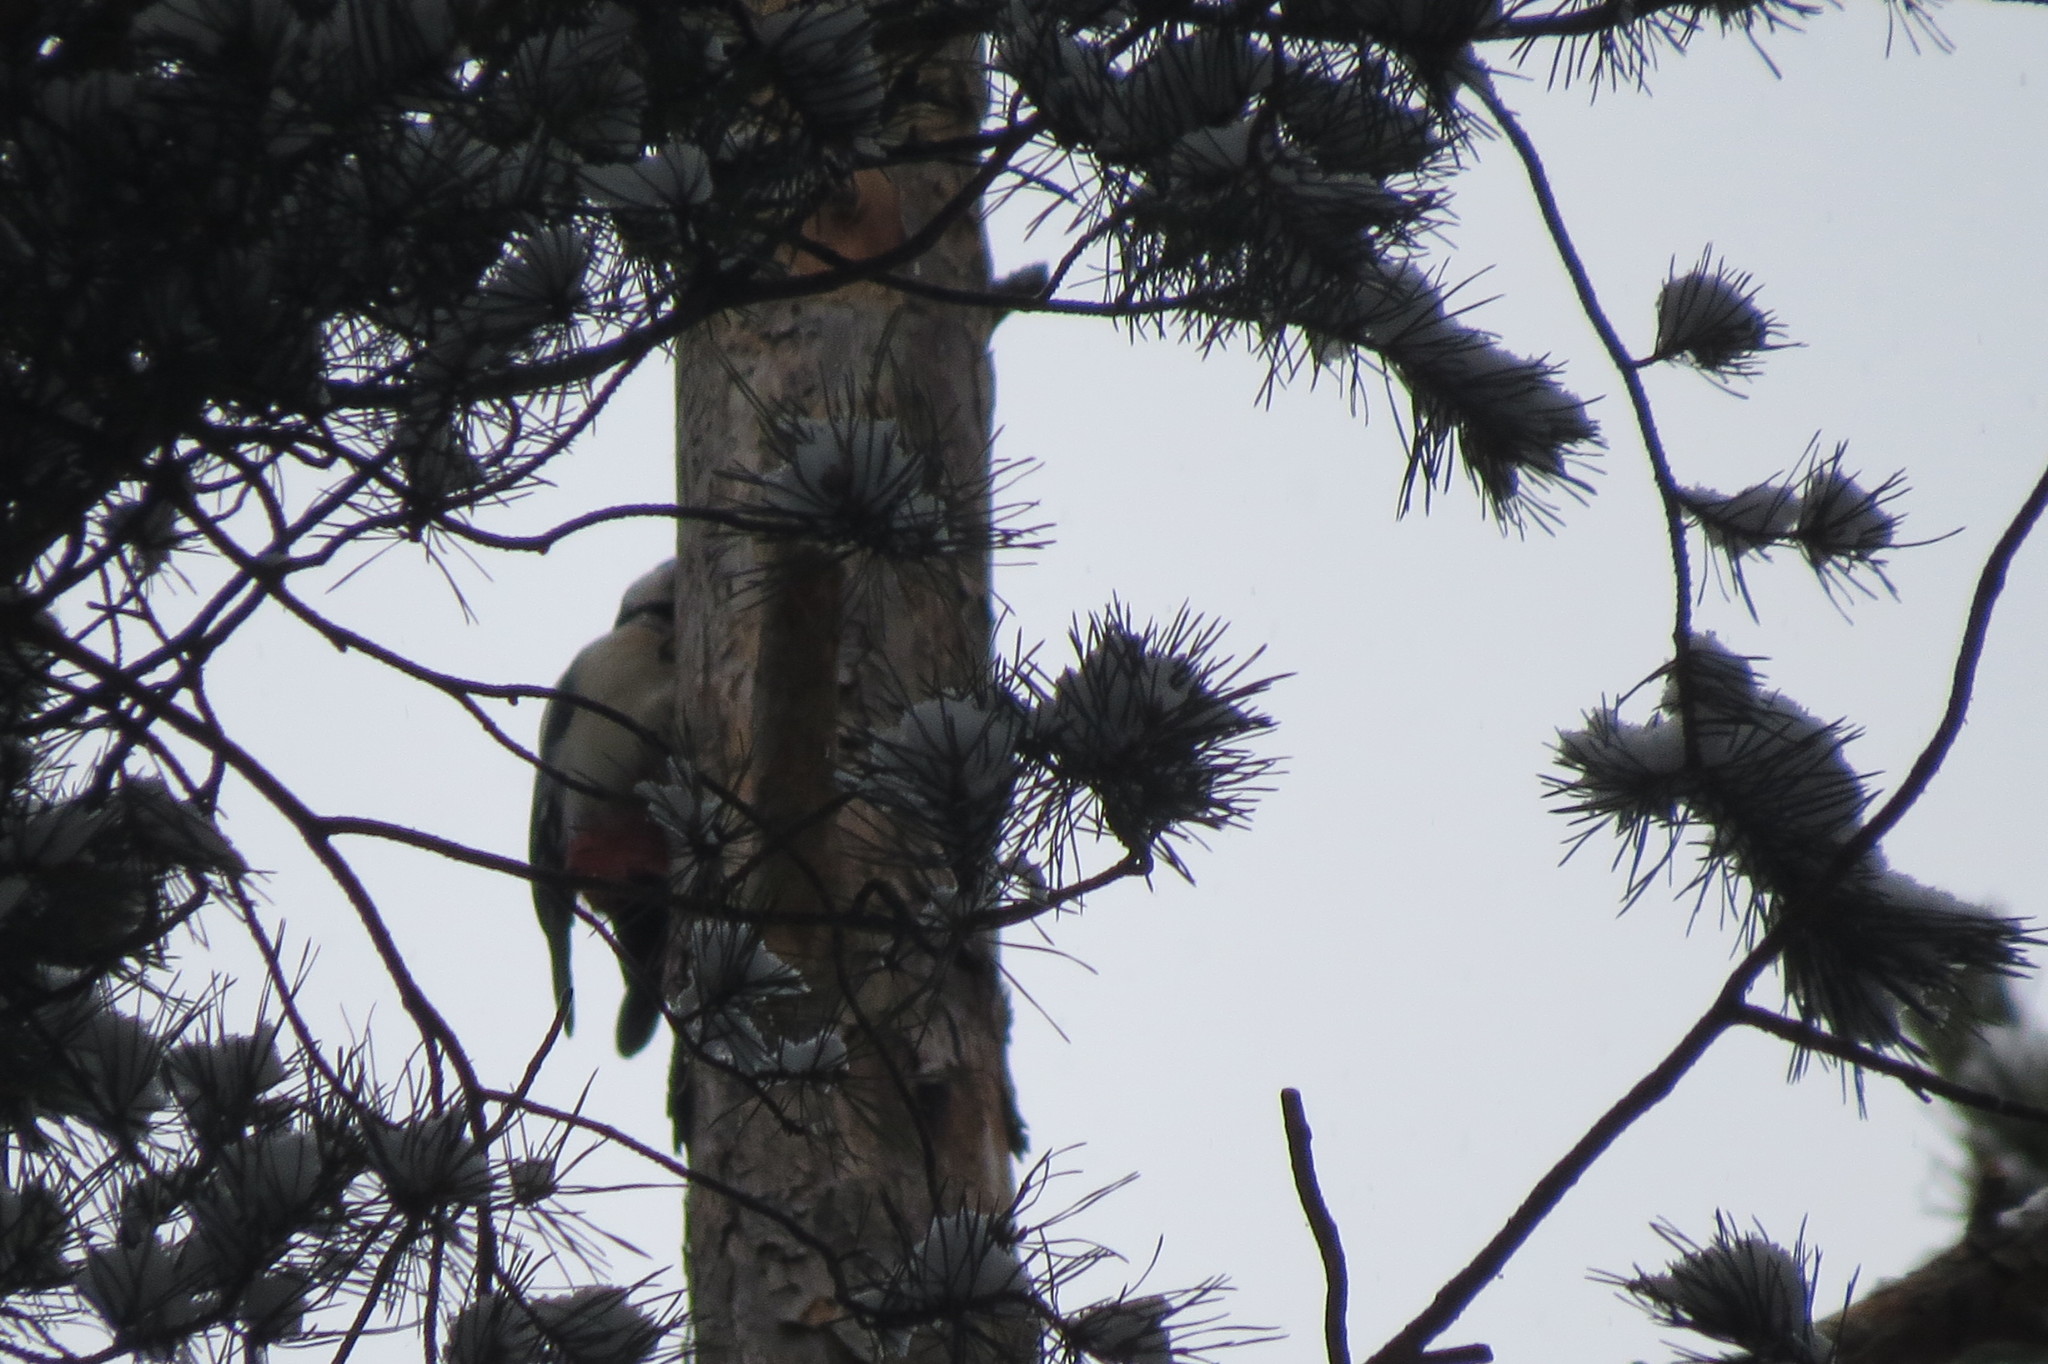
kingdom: Animalia
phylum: Chordata
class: Aves
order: Piciformes
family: Picidae
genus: Dendrocopos
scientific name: Dendrocopos major
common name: Great spotted woodpecker
